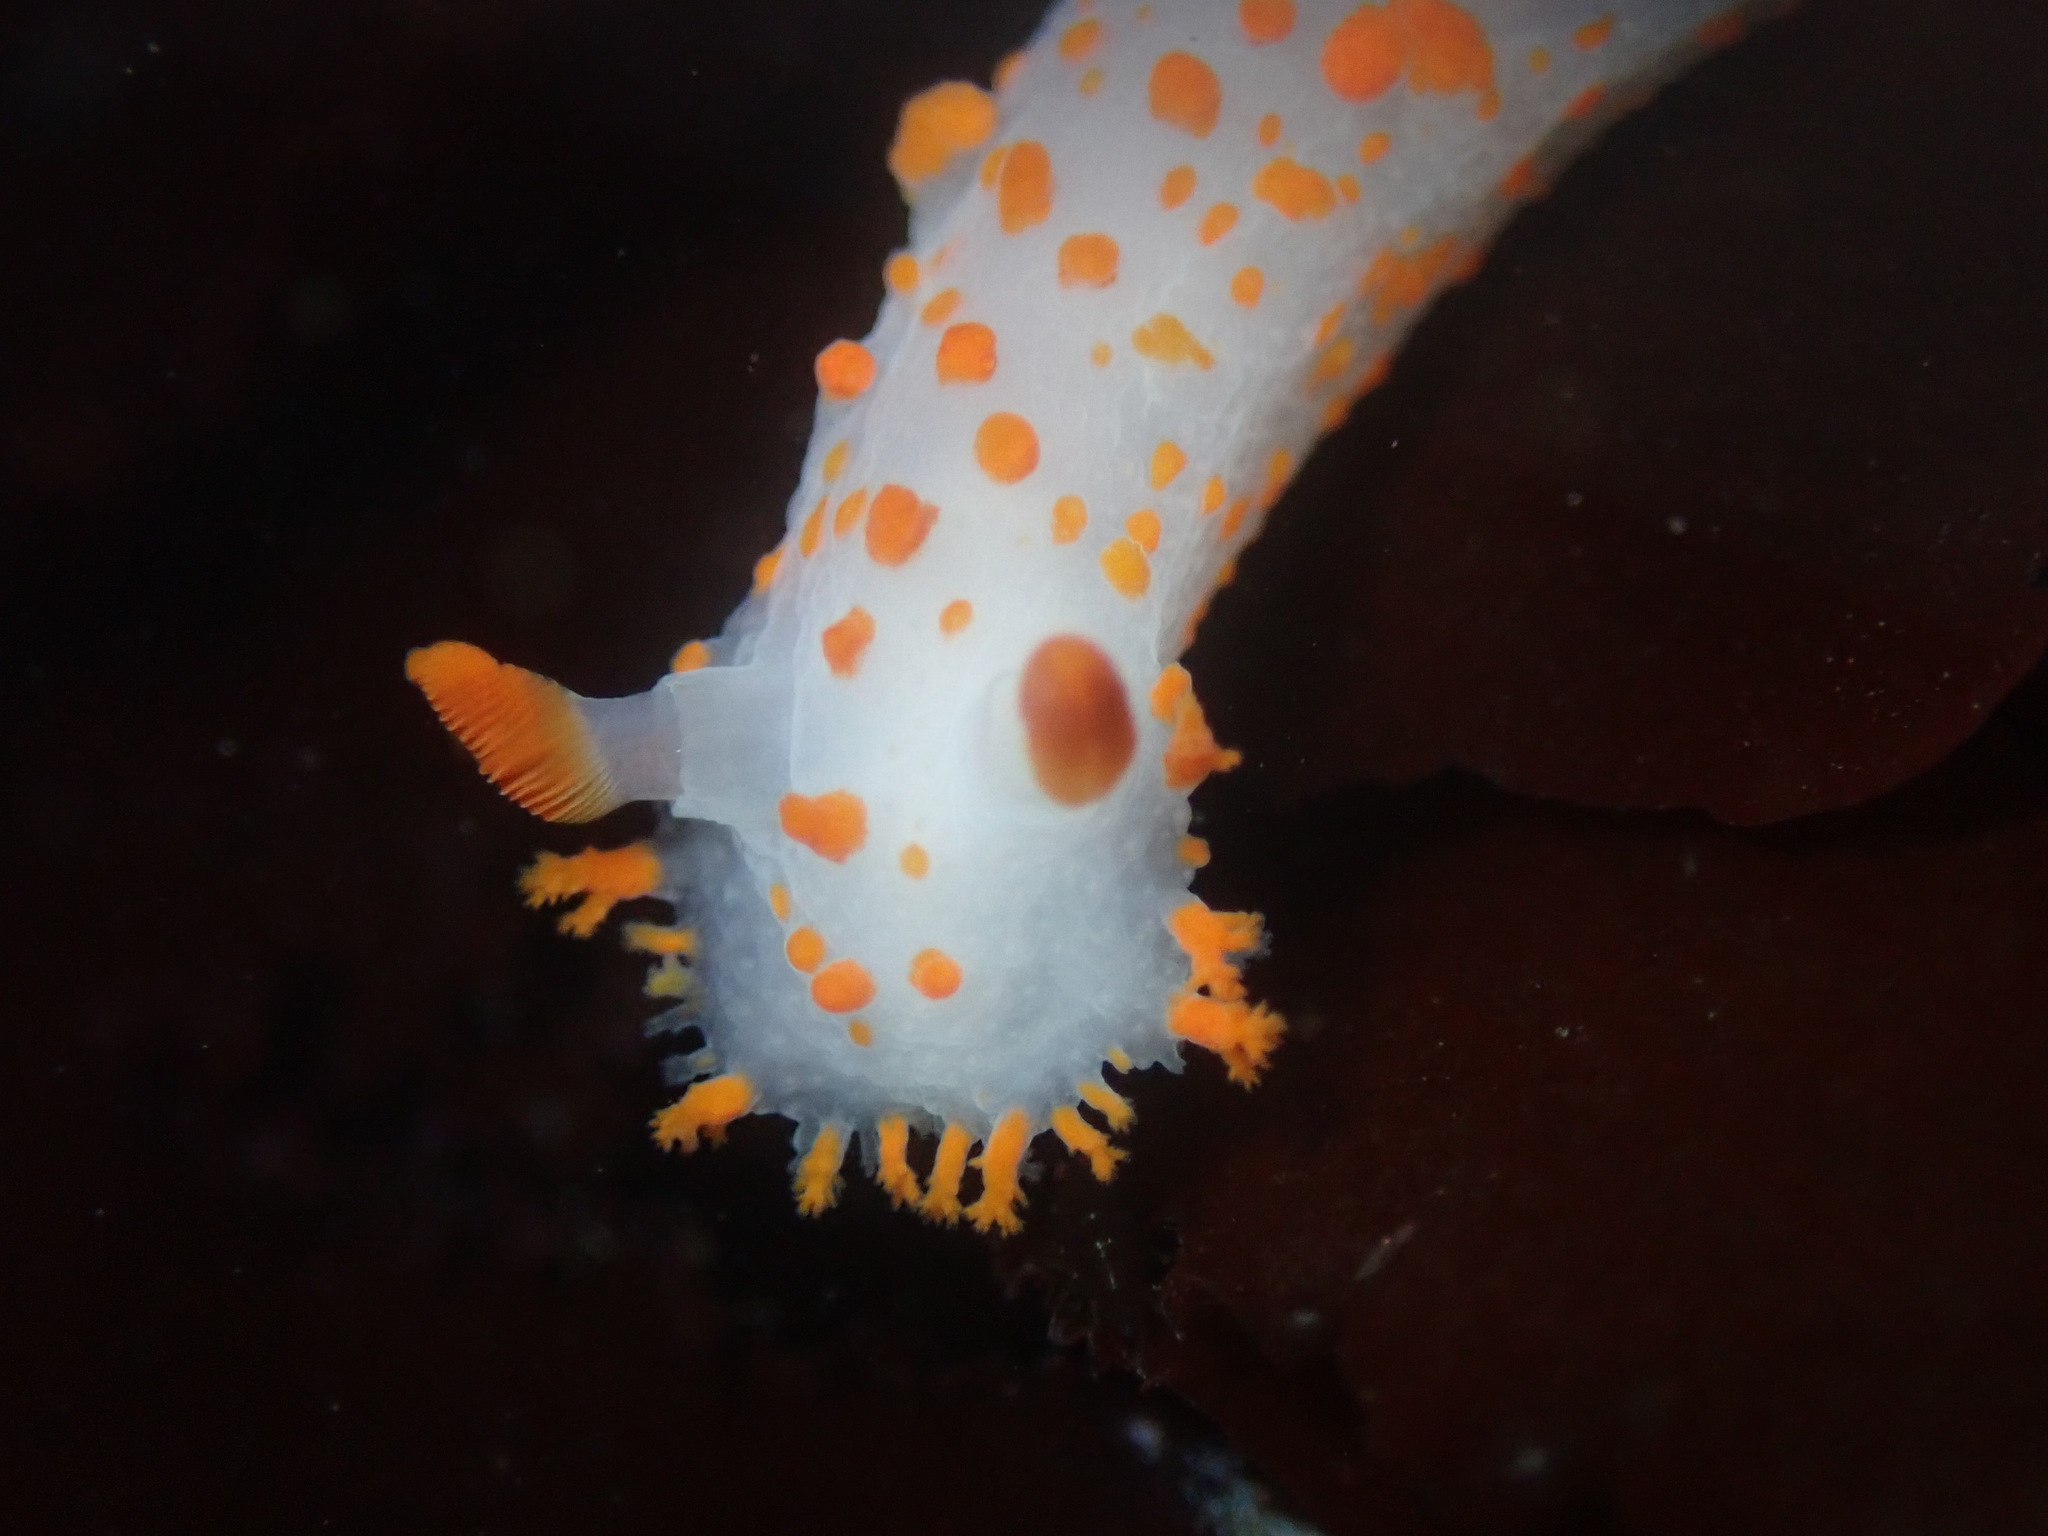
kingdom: Animalia
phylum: Mollusca
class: Gastropoda
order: Nudibranchia
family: Polyceridae
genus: Triopha
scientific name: Triopha catalinae
